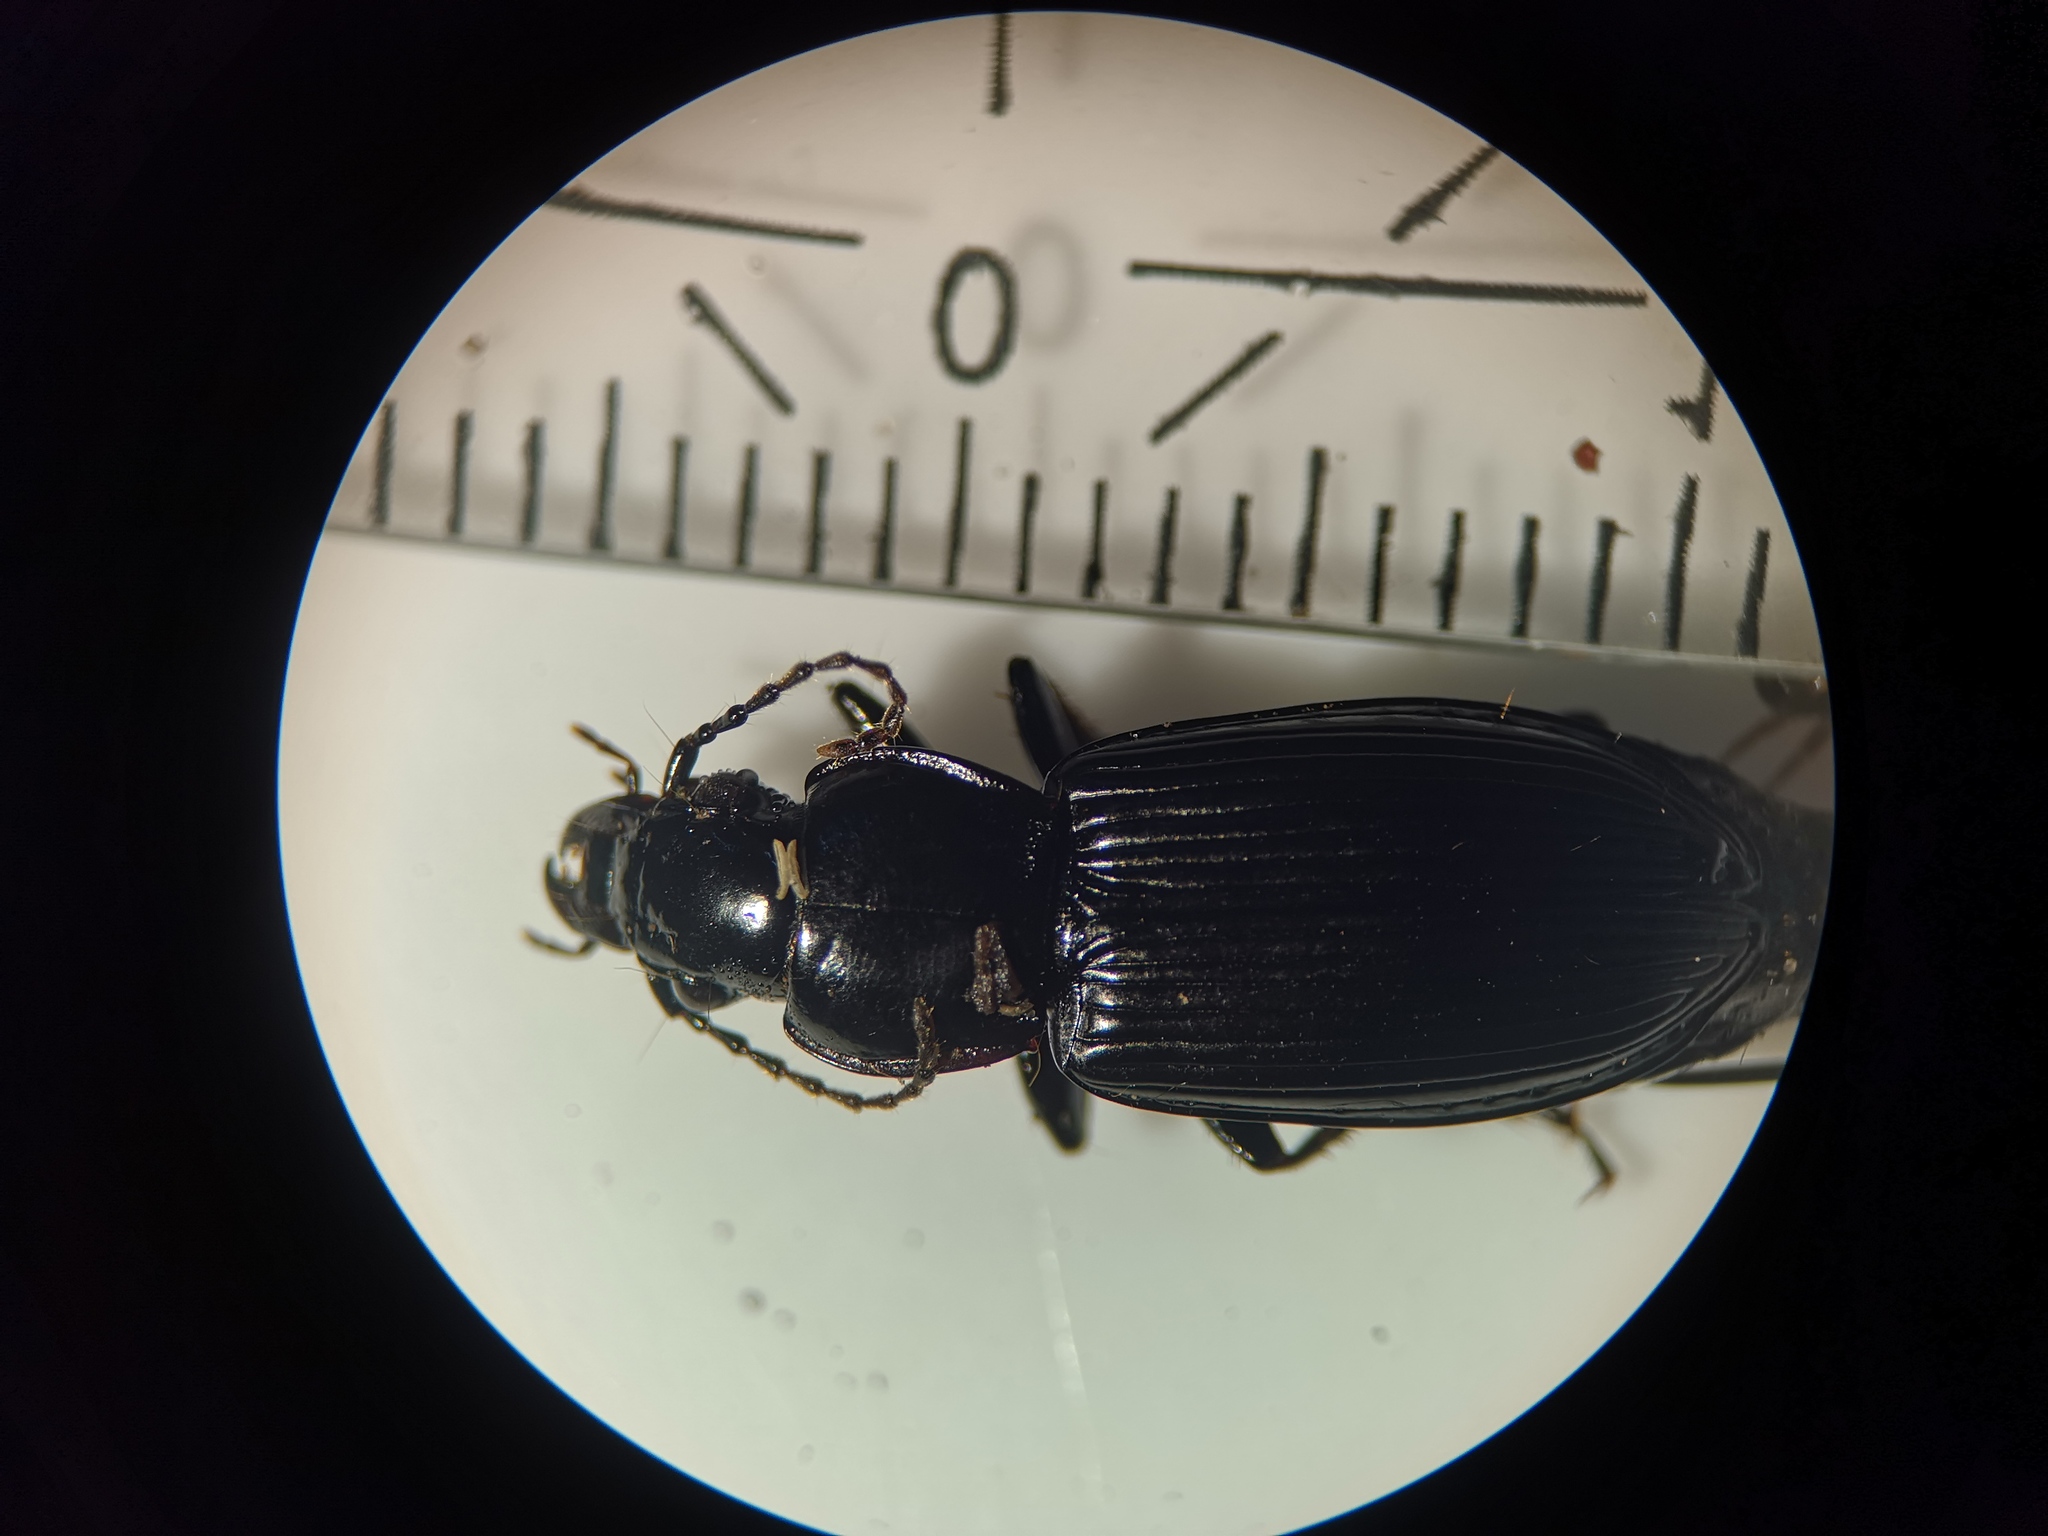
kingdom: Animalia
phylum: Arthropoda
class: Insecta
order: Coleoptera
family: Carabidae
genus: Pterostichus
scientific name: Pterostichus melanarius
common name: European dark harp ground beetle
